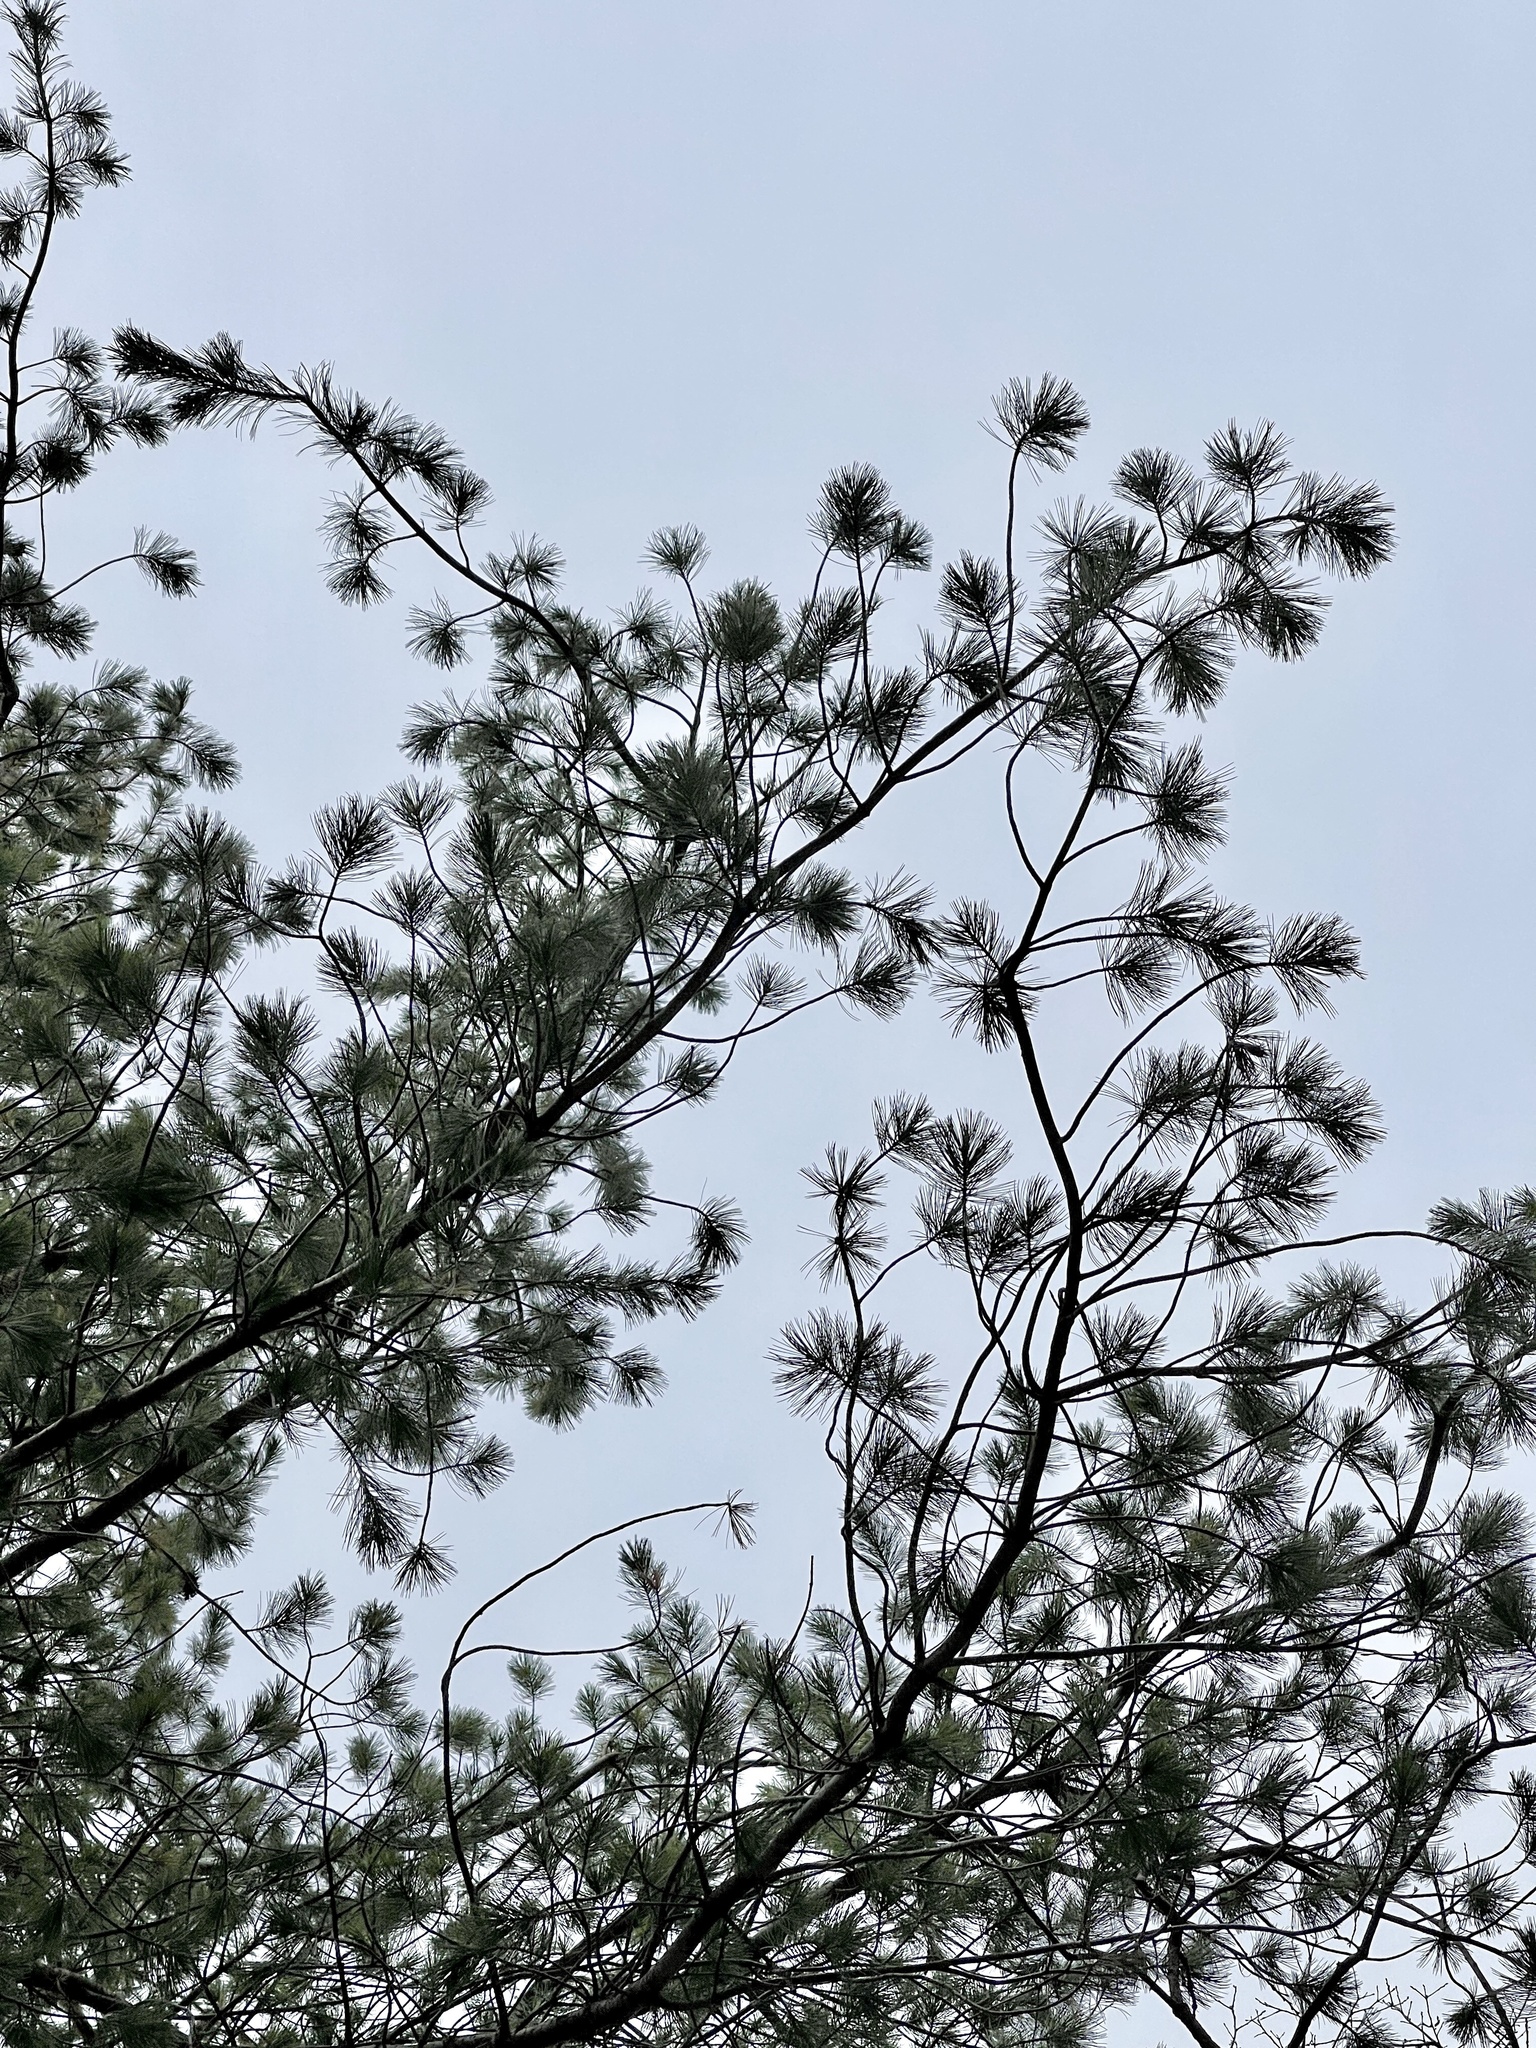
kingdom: Plantae
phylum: Tracheophyta
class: Pinopsida
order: Pinales
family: Pinaceae
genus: Pinus
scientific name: Pinus strobiformis
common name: Southwestern white pine
